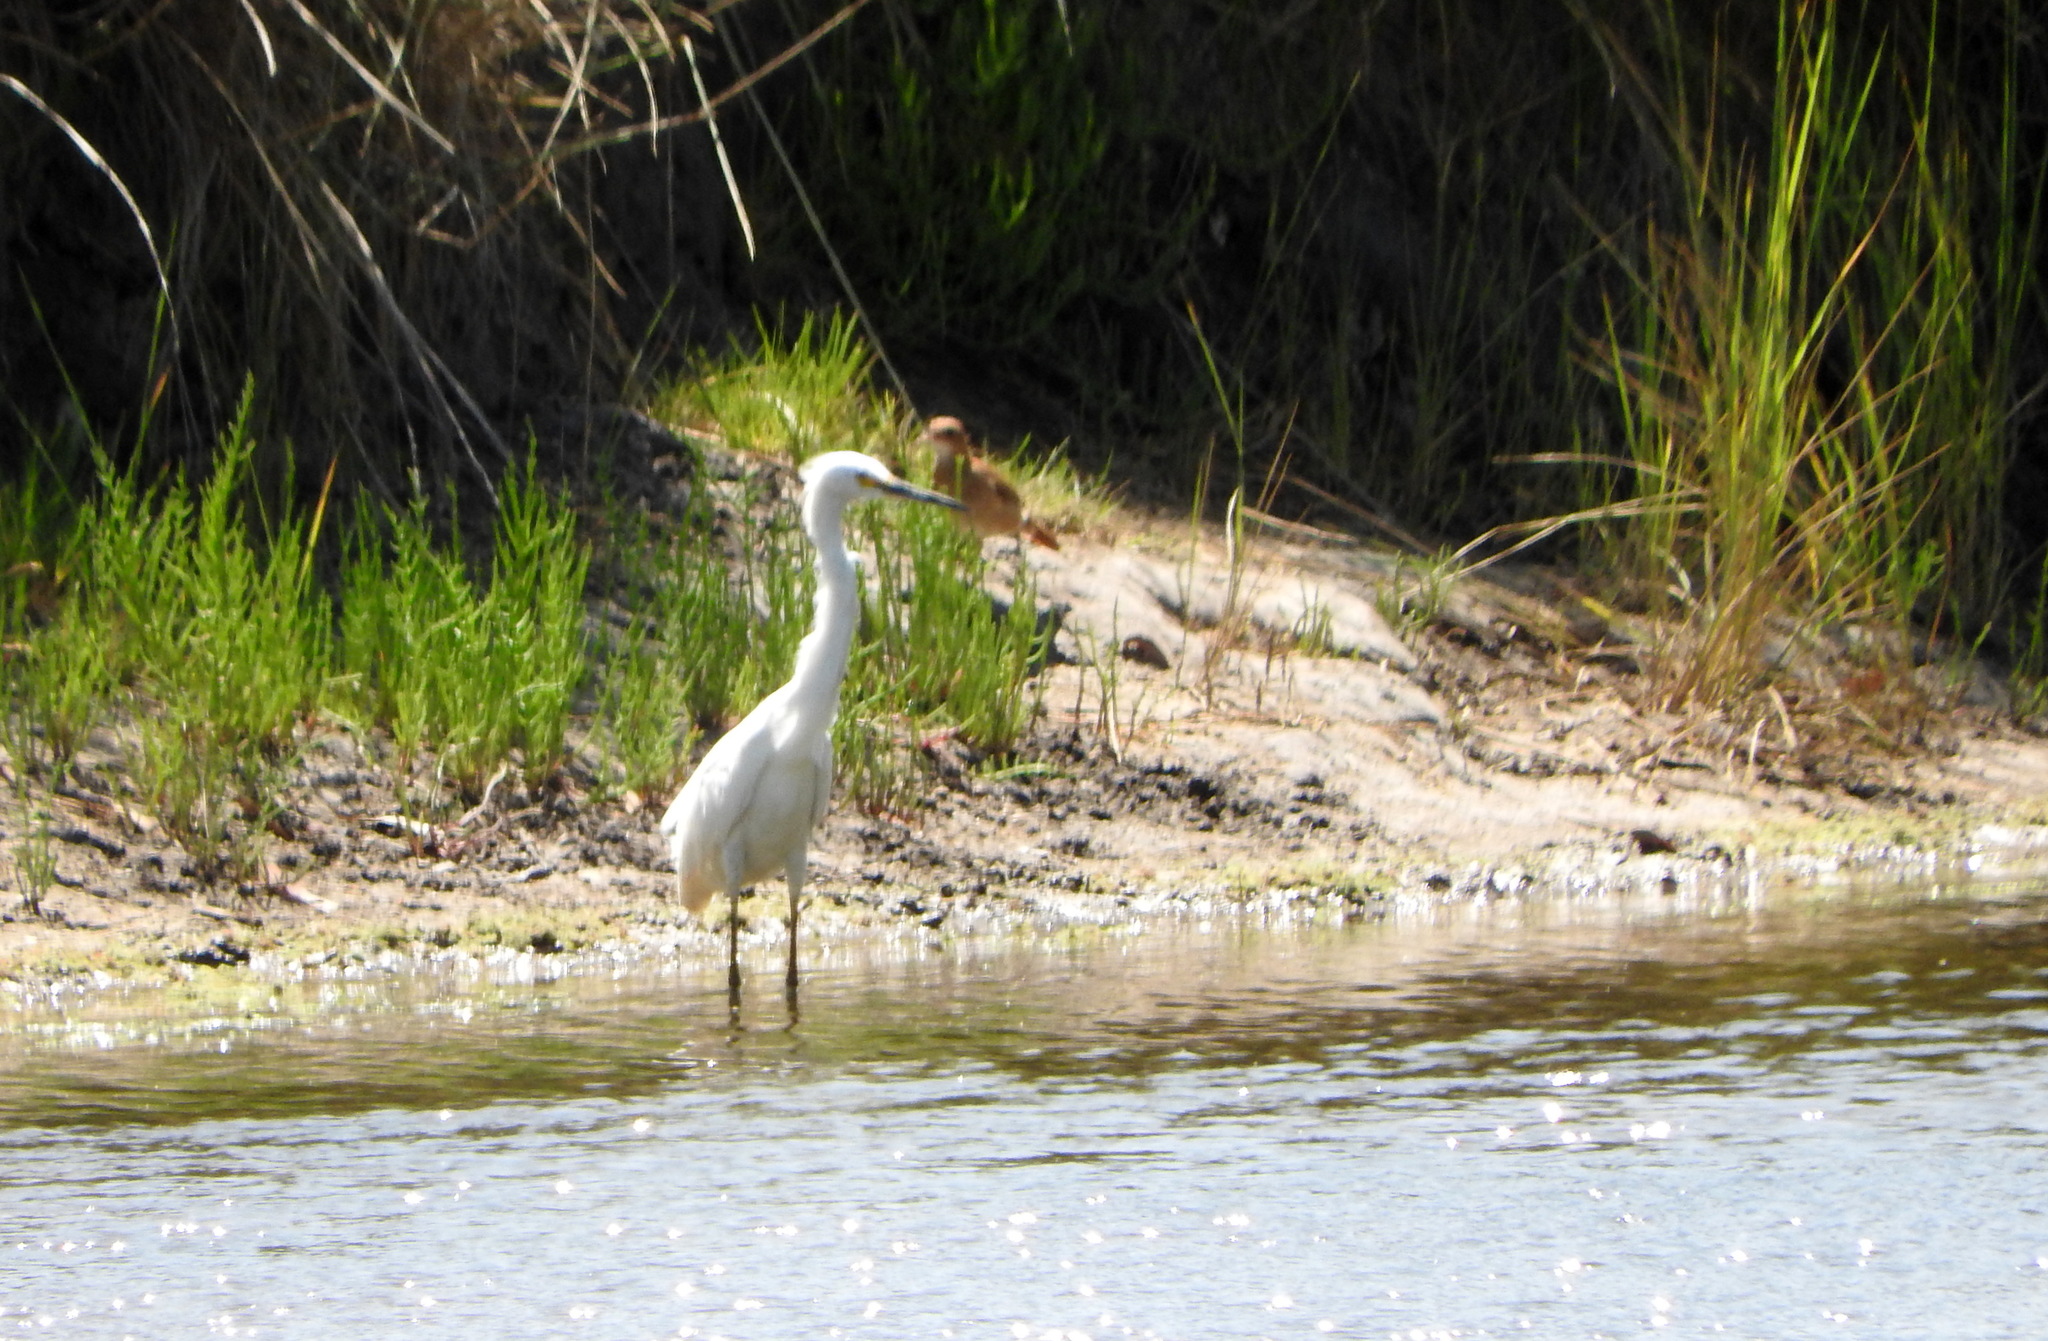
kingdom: Animalia
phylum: Chordata
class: Aves
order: Pelecaniformes
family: Ardeidae
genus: Egretta
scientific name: Egretta thula
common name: Snowy egret
